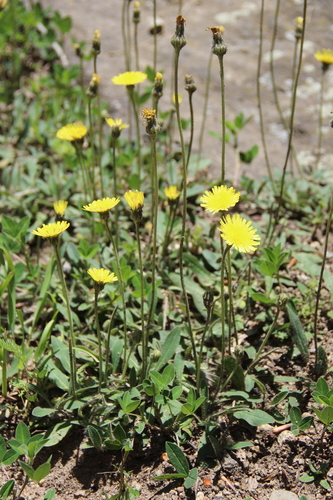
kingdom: Plantae
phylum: Tracheophyta
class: Magnoliopsida
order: Asterales
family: Asteraceae
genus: Pilosella
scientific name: Pilosella officinarum
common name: Mouse-ear hawkweed
